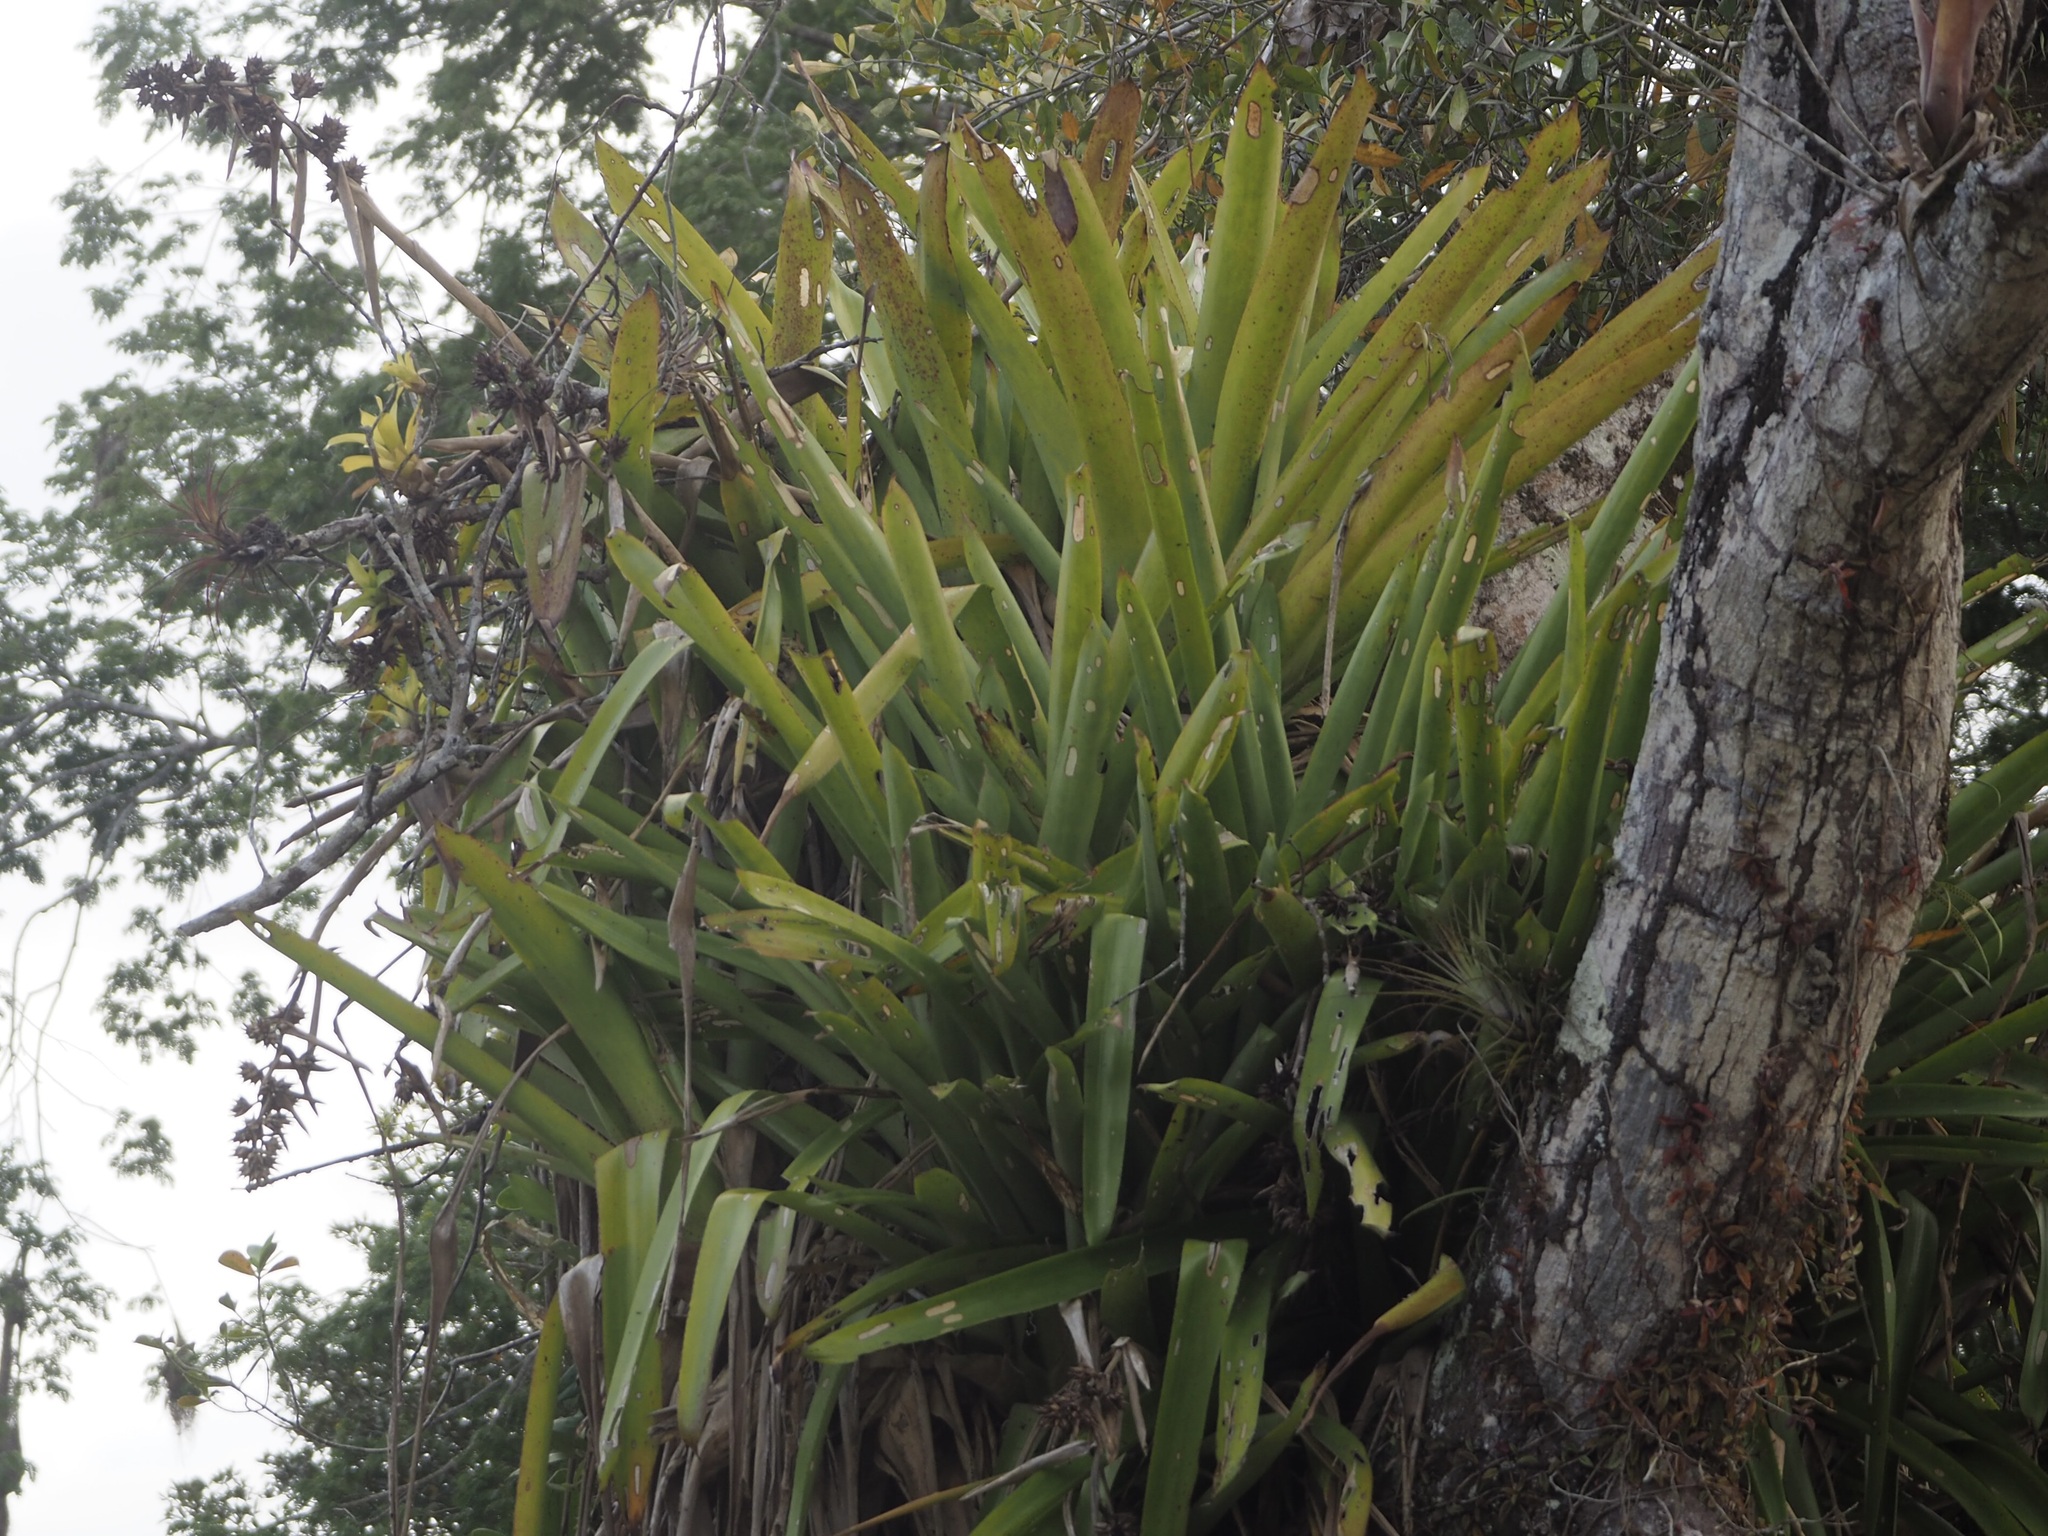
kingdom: Plantae
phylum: Tracheophyta
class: Liliopsida
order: Poales
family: Bromeliaceae
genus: Aechmea
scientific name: Aechmea aquilega
